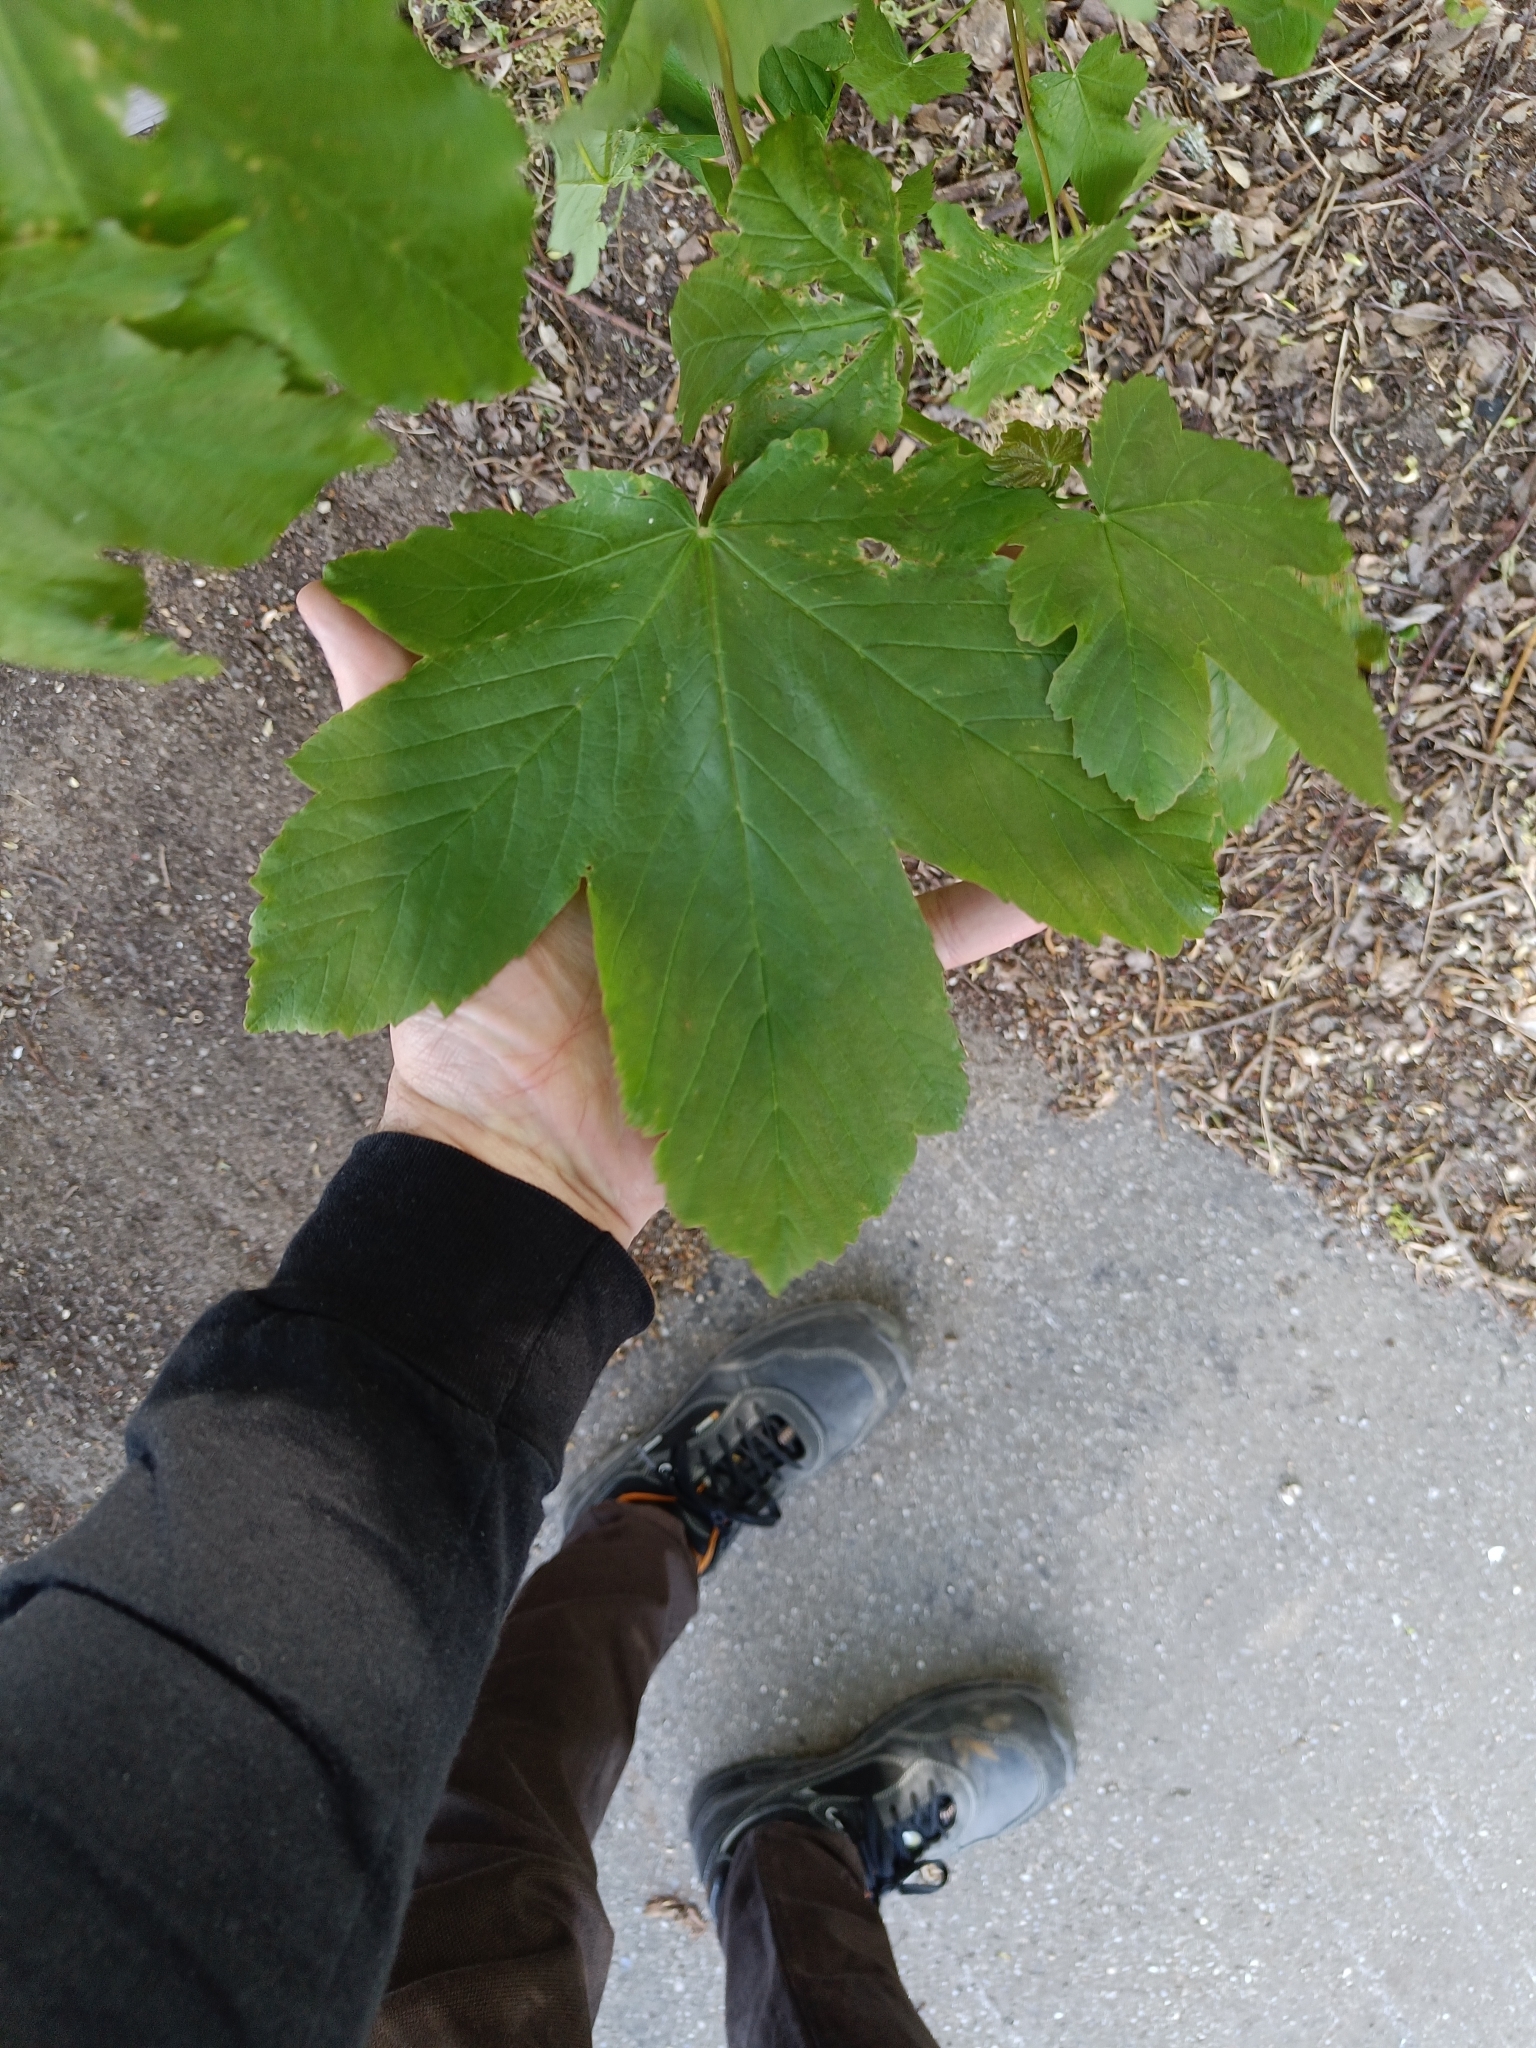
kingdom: Plantae
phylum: Tracheophyta
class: Magnoliopsida
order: Sapindales
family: Sapindaceae
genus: Acer
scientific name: Acer pseudoplatanus
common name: Sycamore
